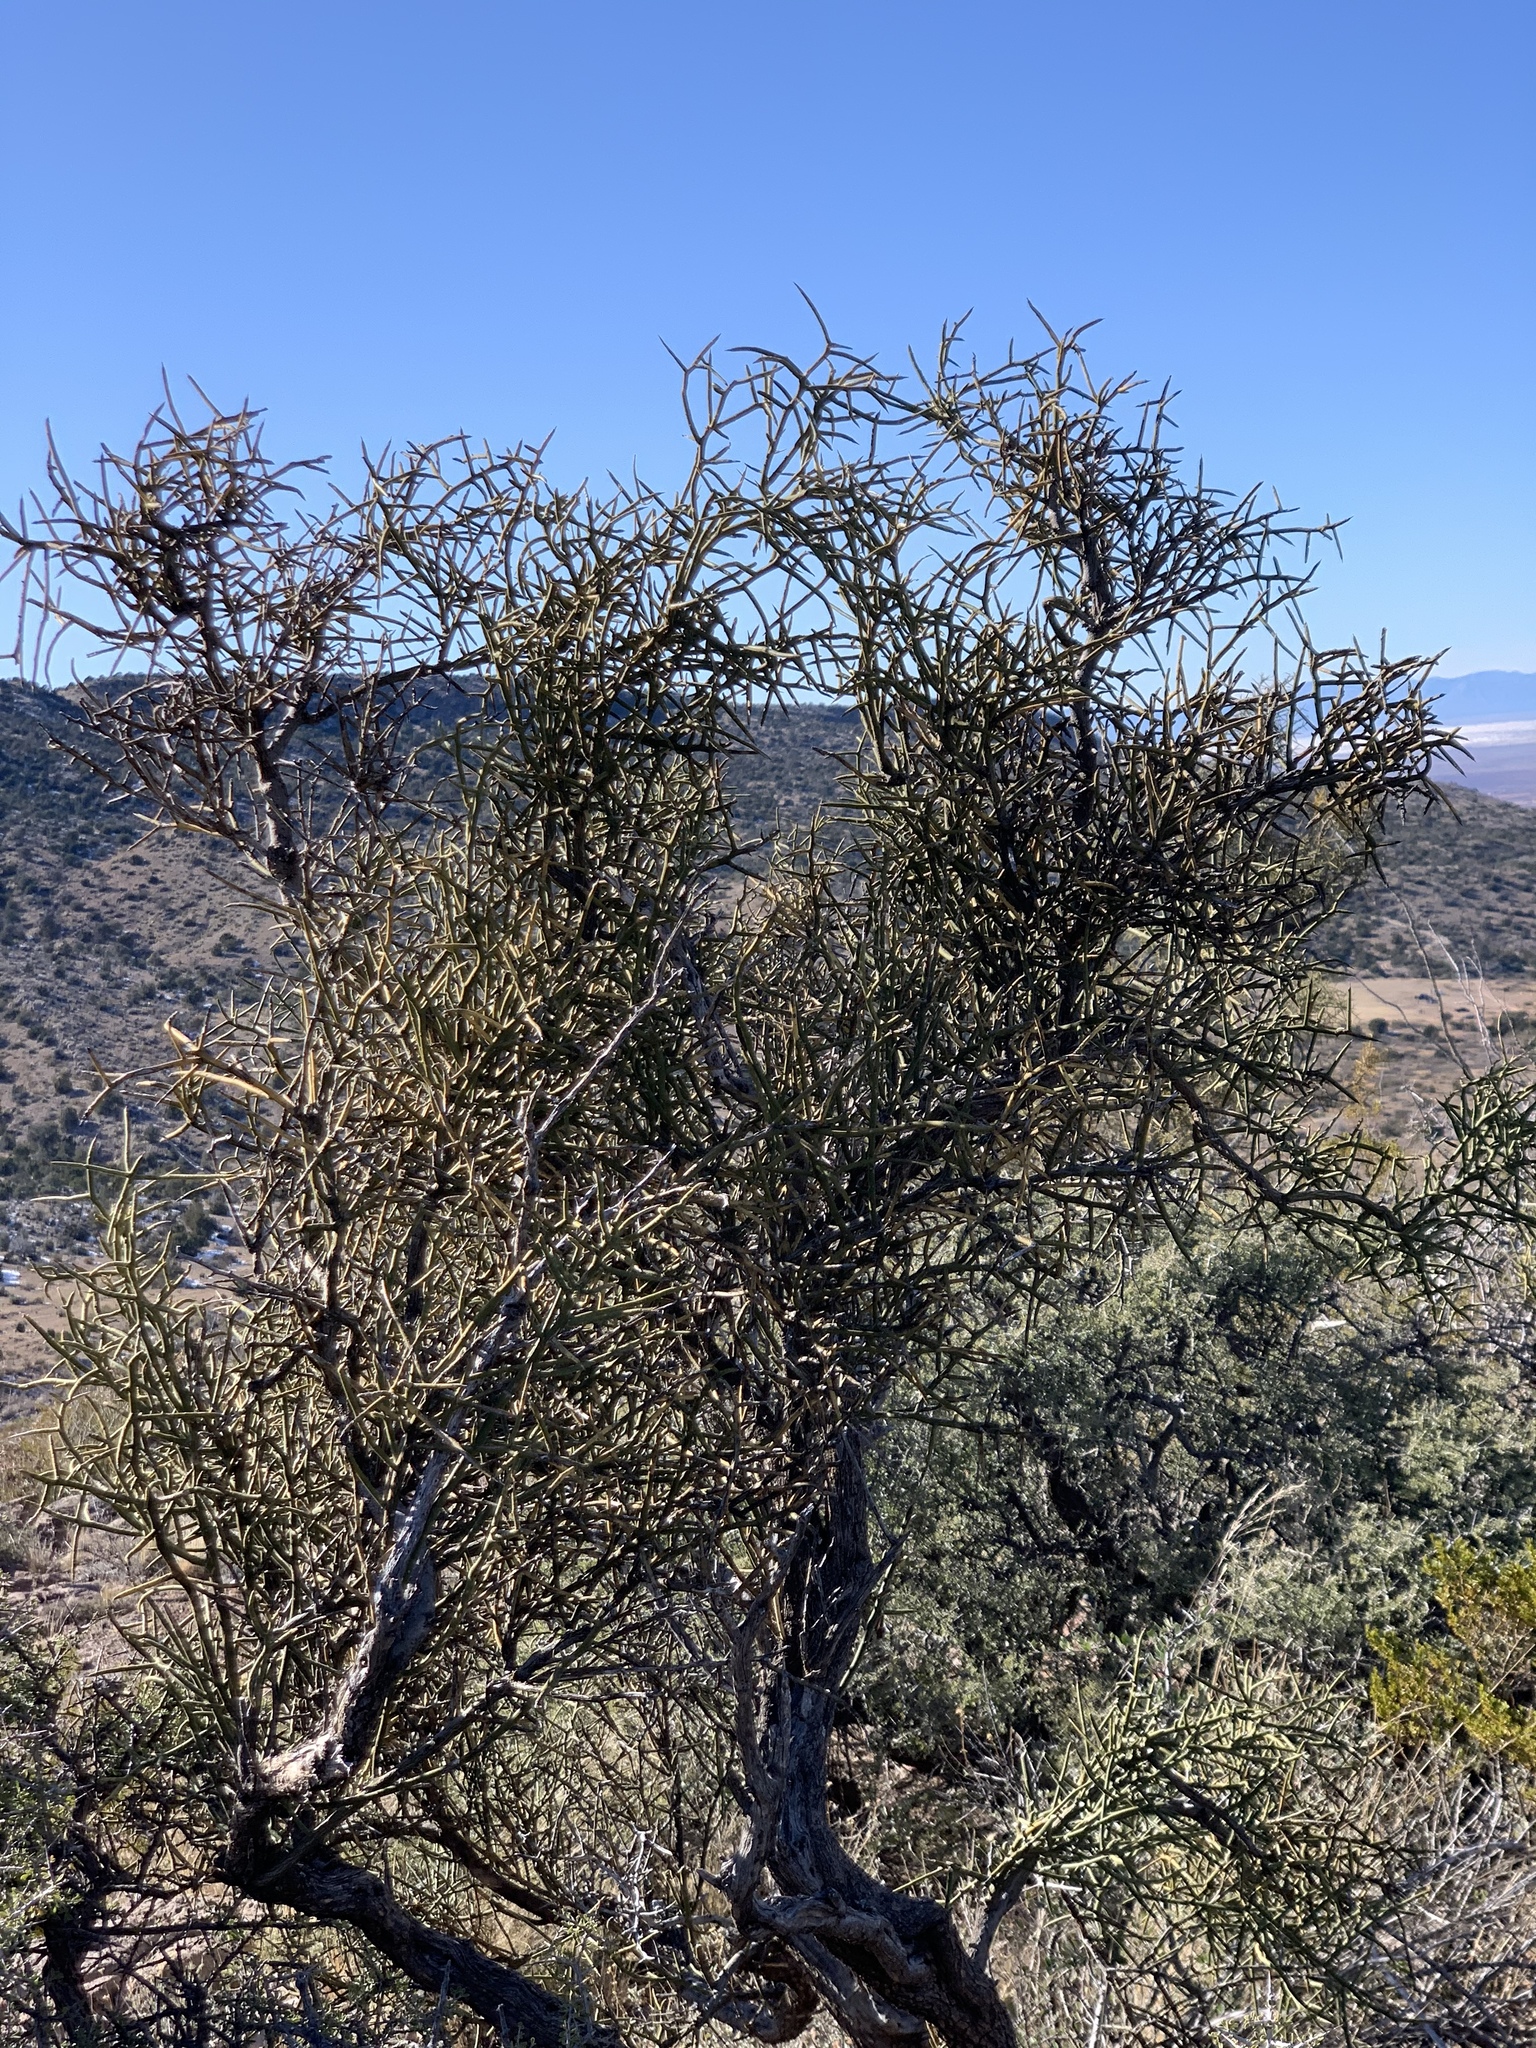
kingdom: Plantae
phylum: Tracheophyta
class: Magnoliopsida
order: Brassicales
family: Koeberliniaceae
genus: Koeberlinia
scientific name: Koeberlinia spinosa
